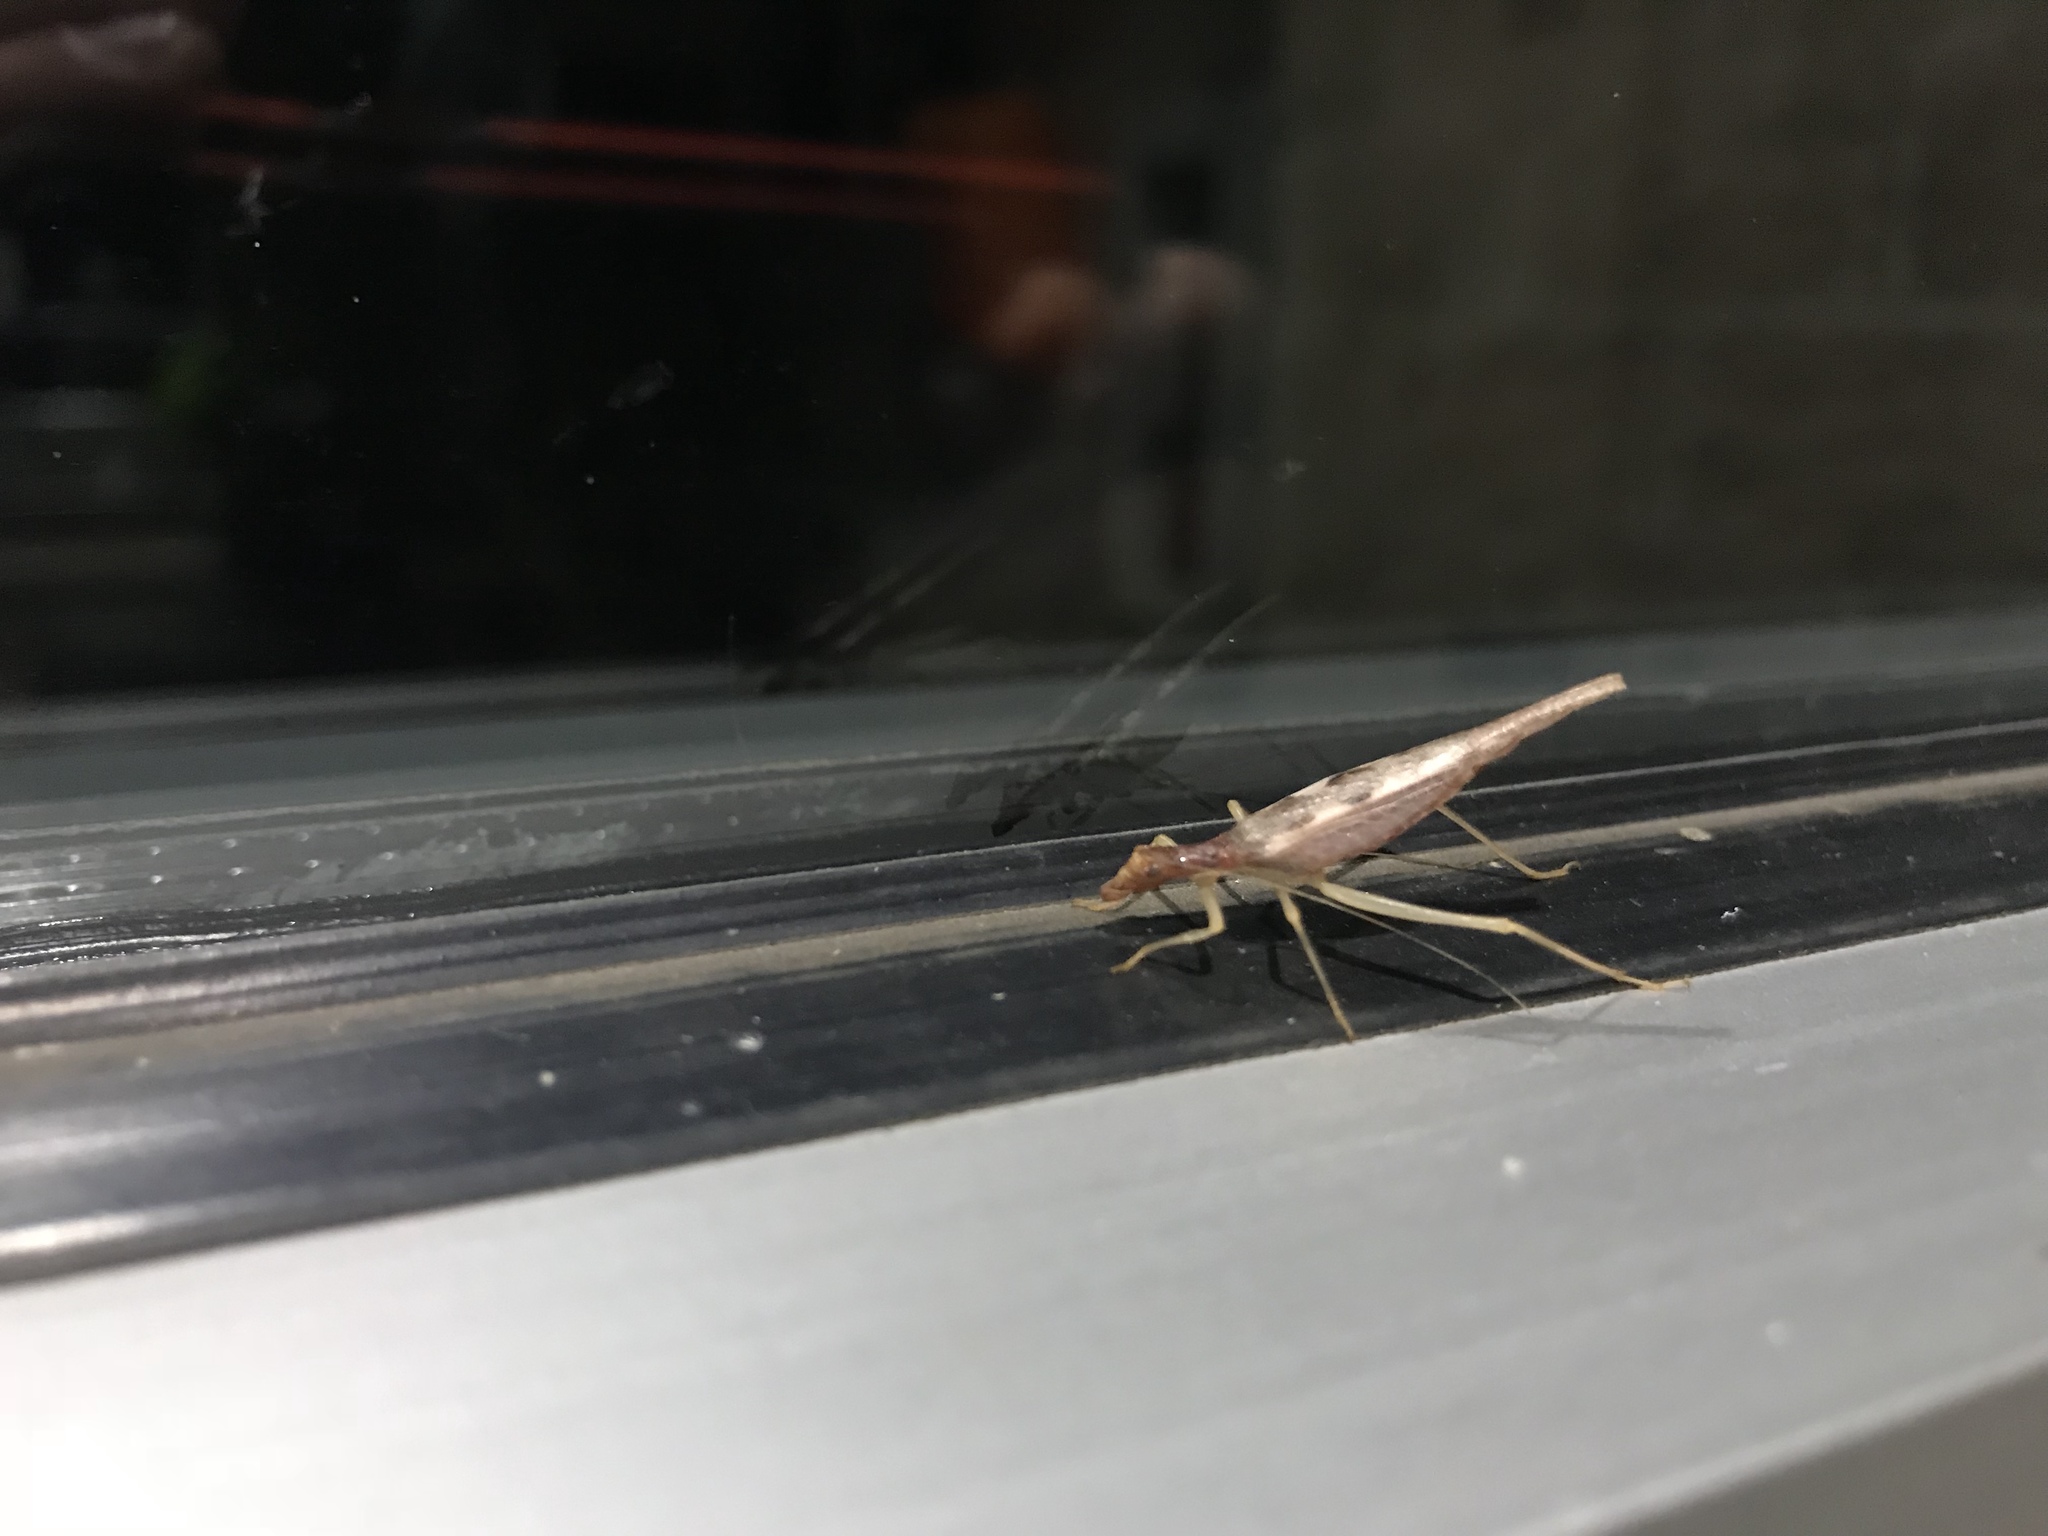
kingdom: Animalia
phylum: Arthropoda
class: Insecta
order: Orthoptera
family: Gryllidae
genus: Neoxabea
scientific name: Neoxabea bipunctata
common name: Two-spotted tree cricket
